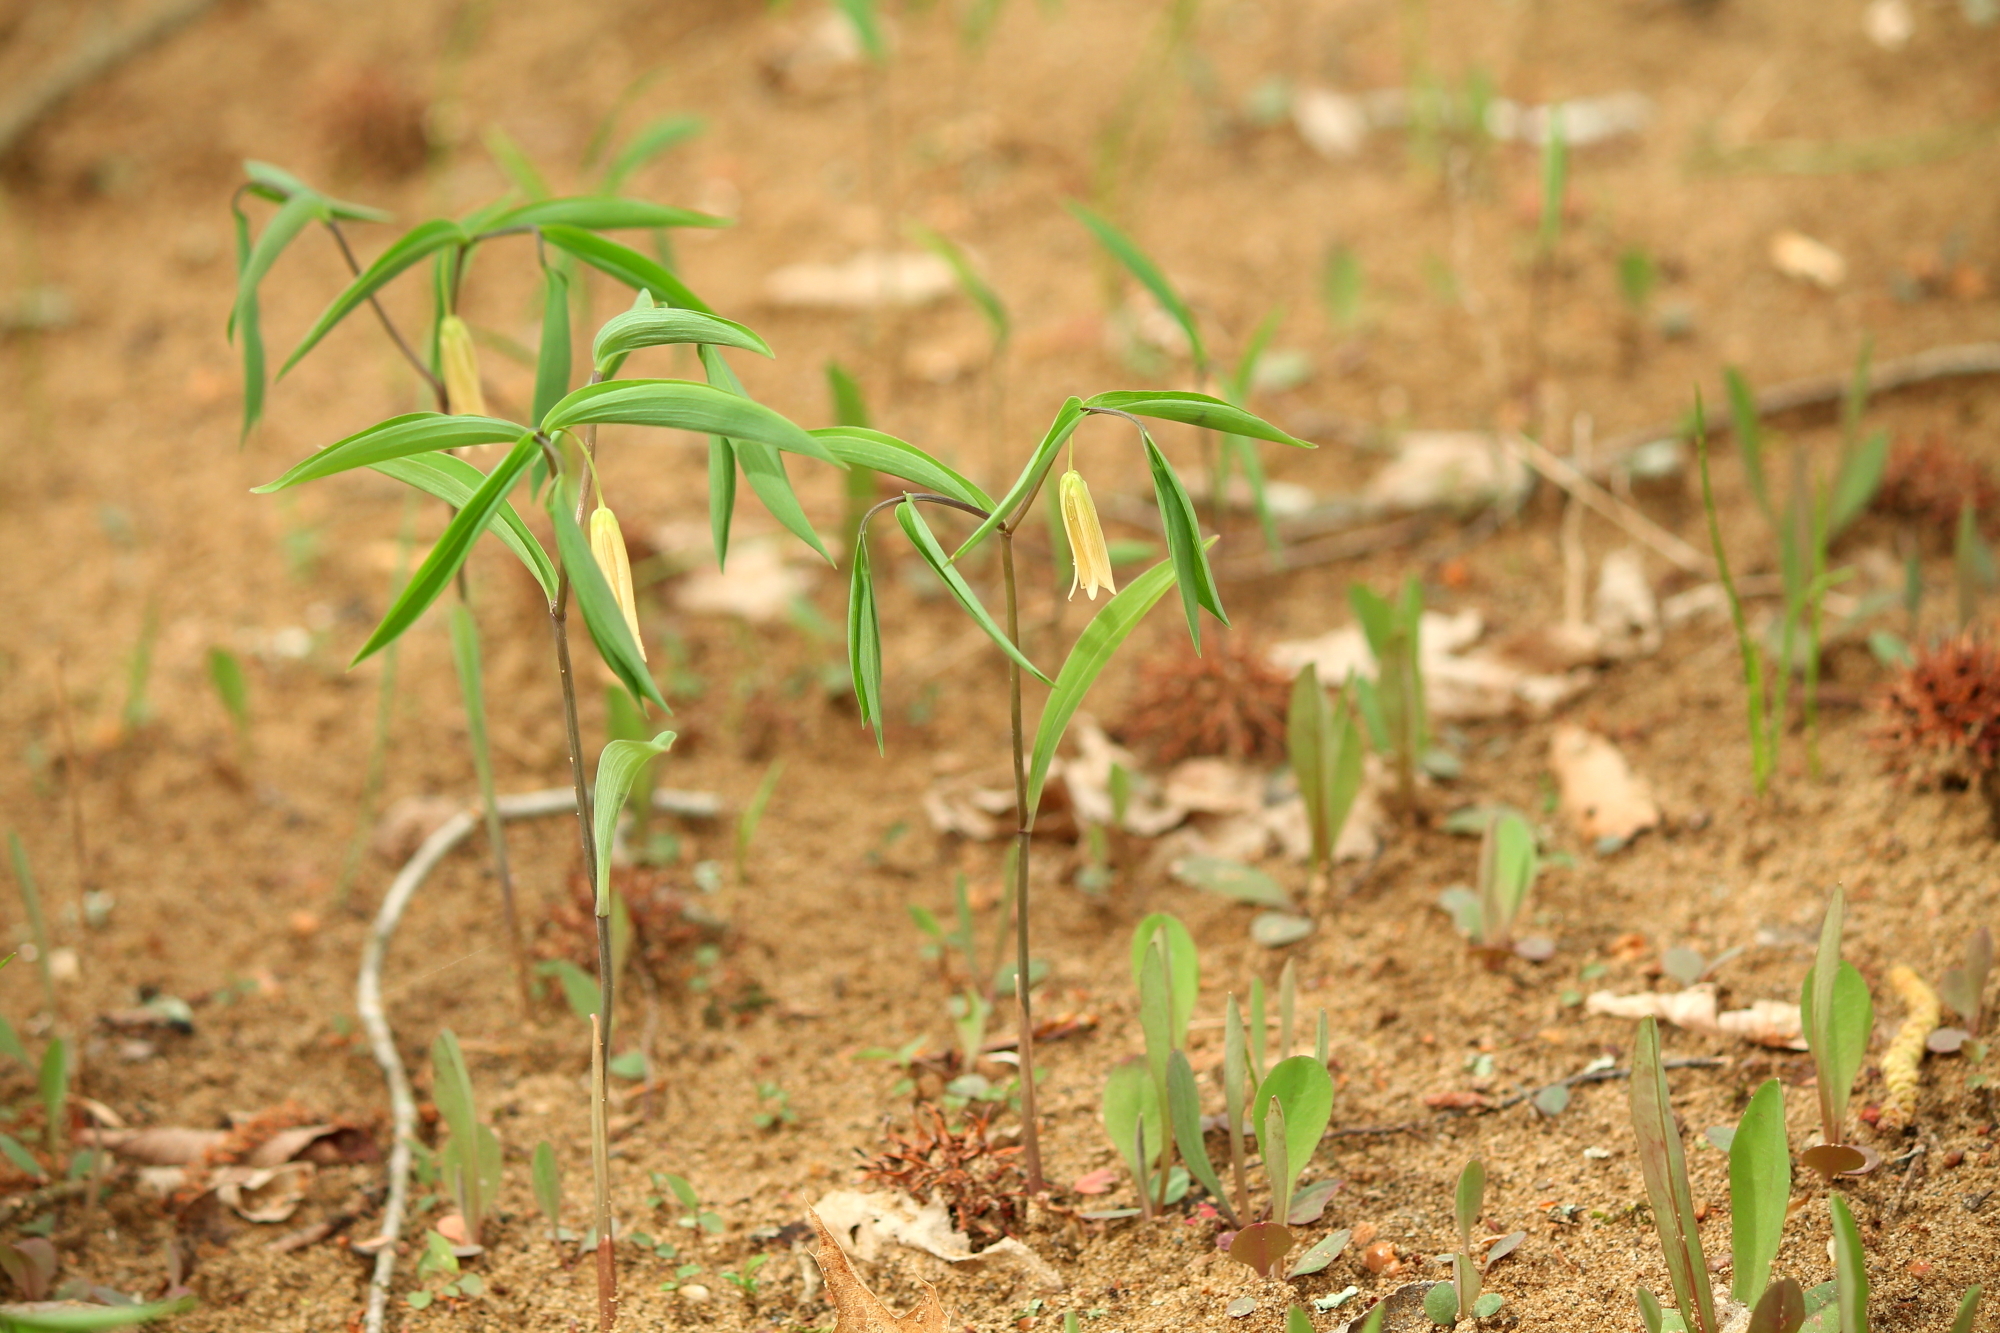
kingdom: Plantae
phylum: Tracheophyta
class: Liliopsida
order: Liliales
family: Colchicaceae
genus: Uvularia
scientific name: Uvularia sessilifolia
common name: Straw-lily
